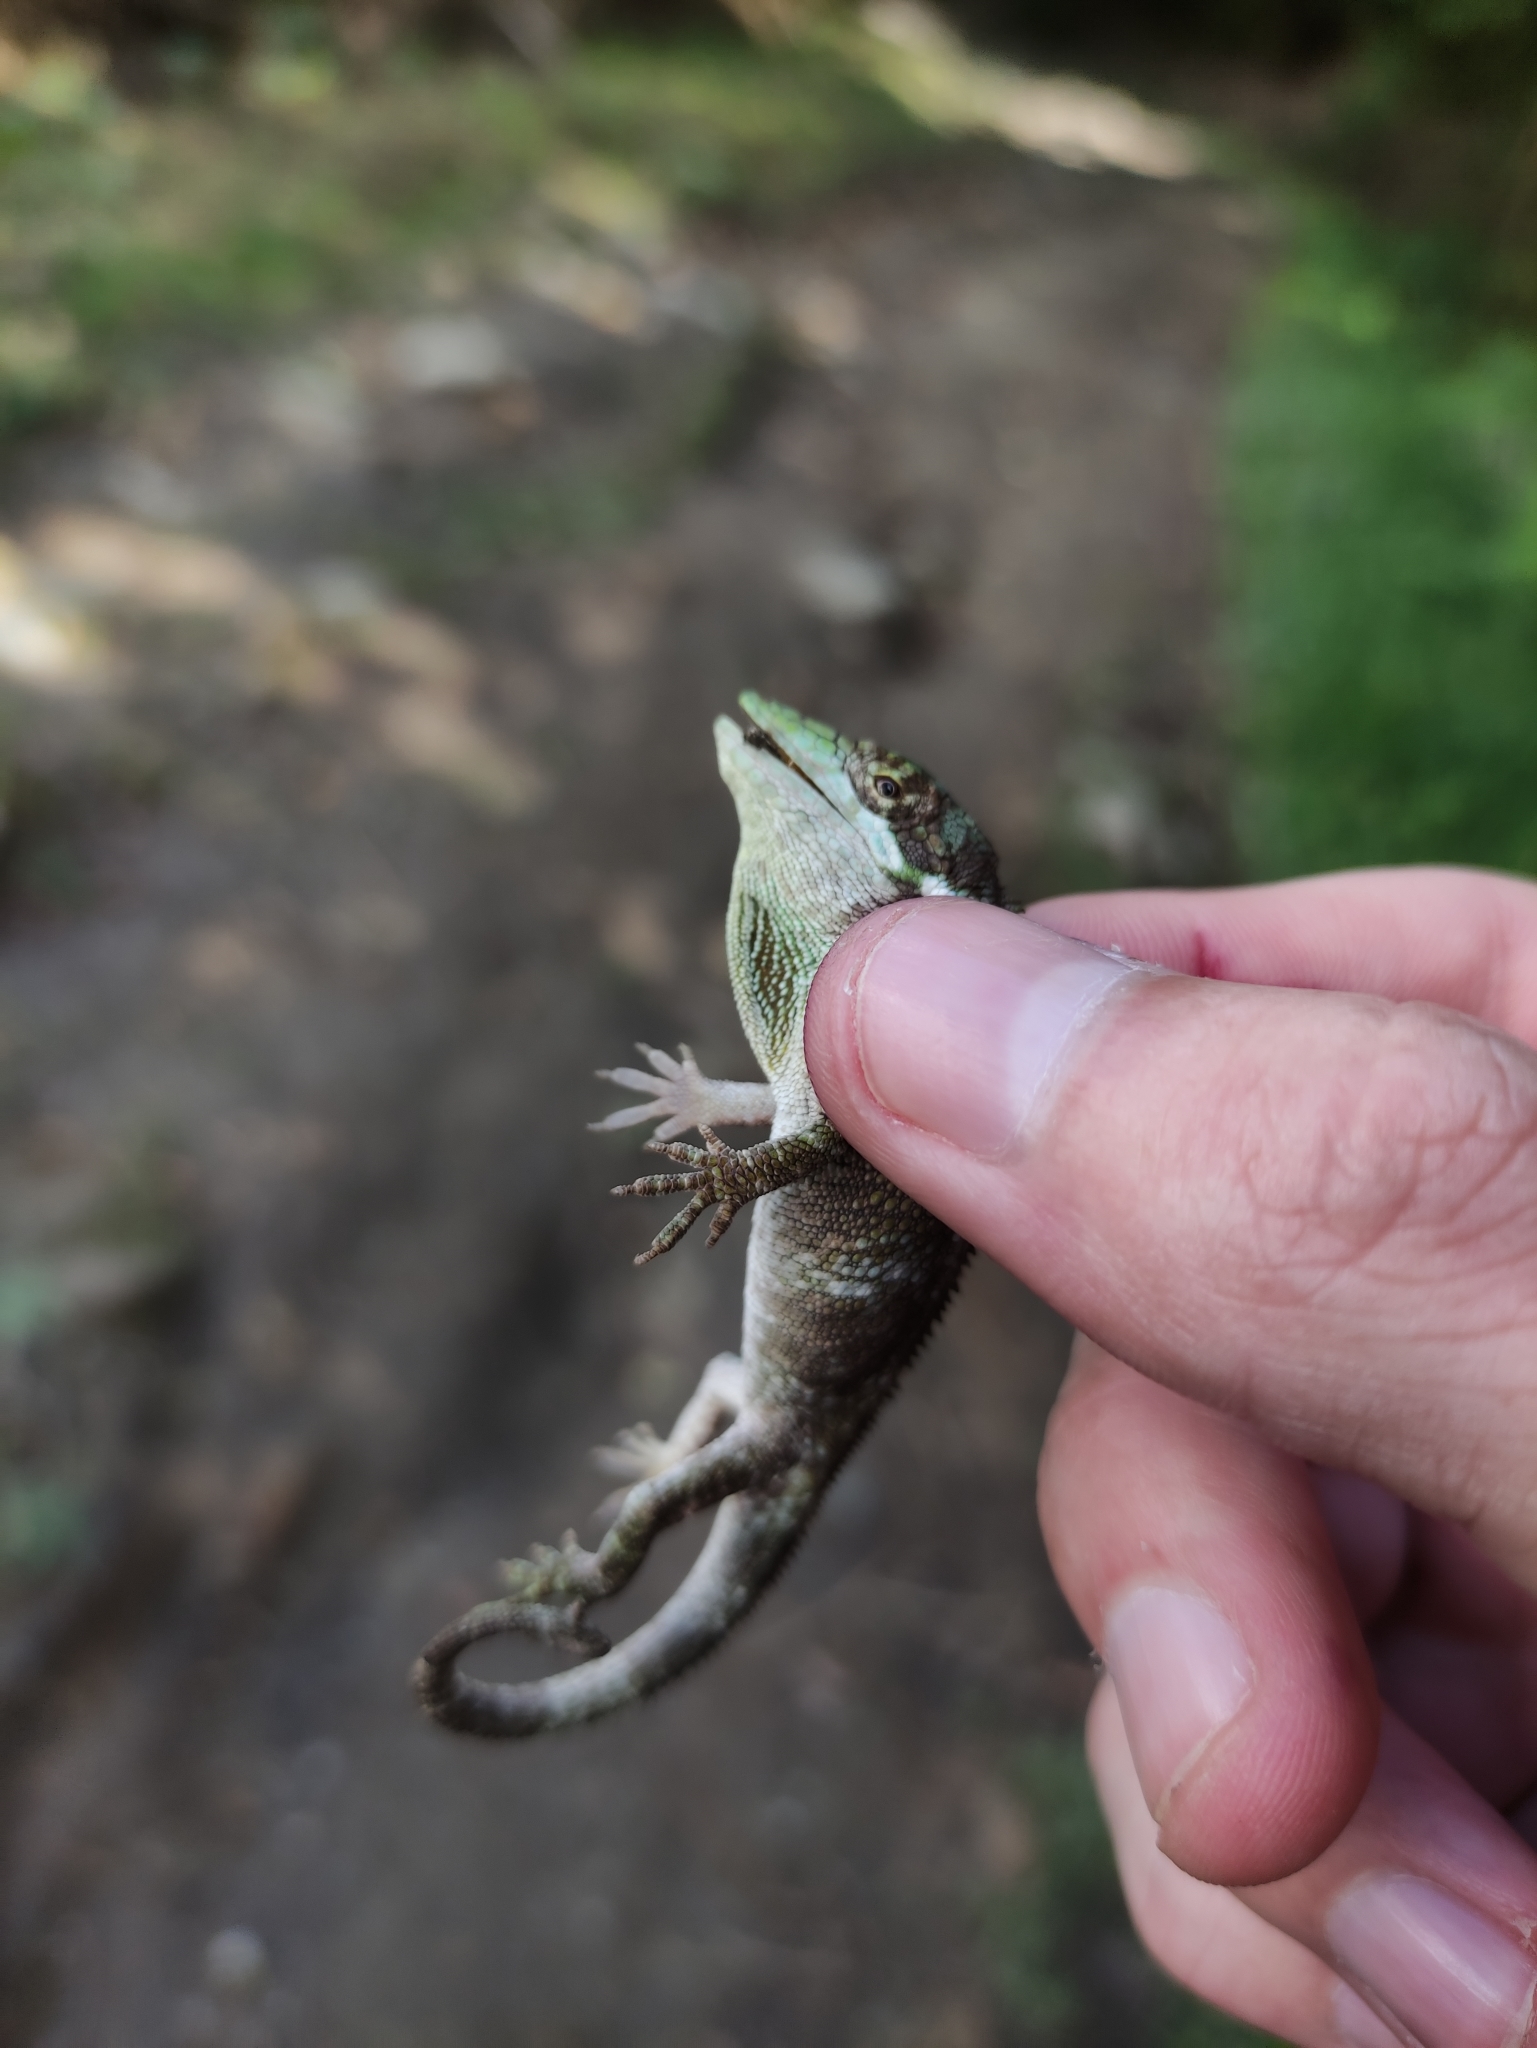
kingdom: Animalia
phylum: Chordata
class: Squamata
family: Dactyloidae
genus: Anolis
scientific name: Anolis heterodermus
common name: Flat andes anole
